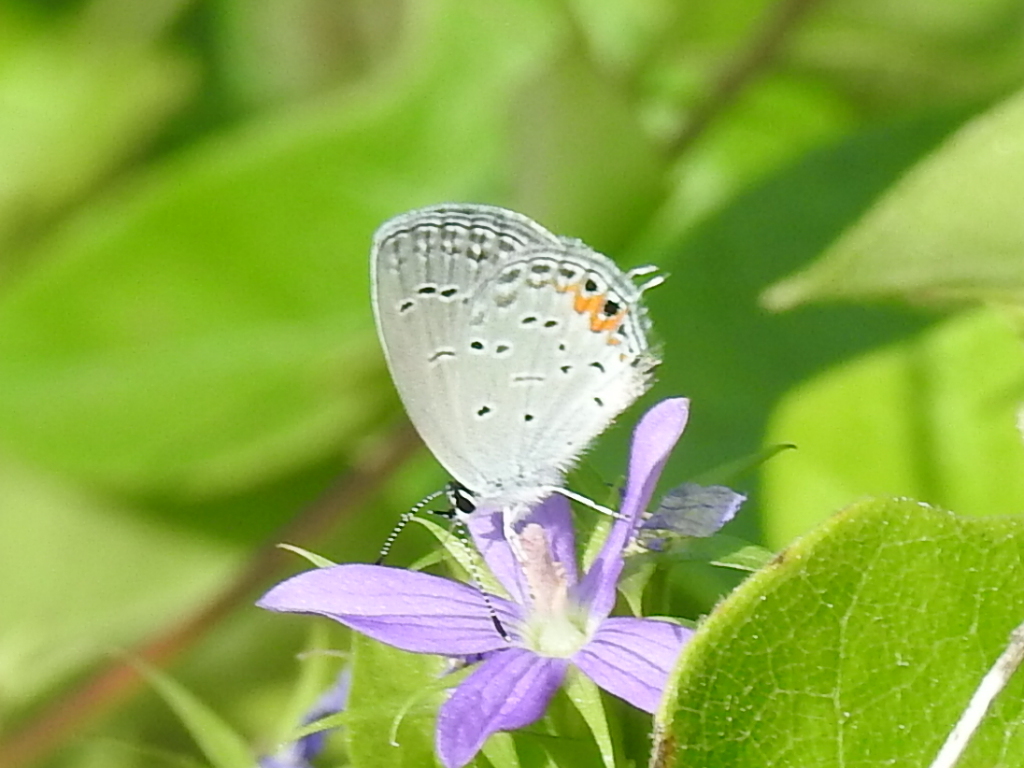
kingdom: Animalia
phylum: Arthropoda
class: Insecta
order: Lepidoptera
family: Lycaenidae
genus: Elkalyce
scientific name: Elkalyce comyntas
